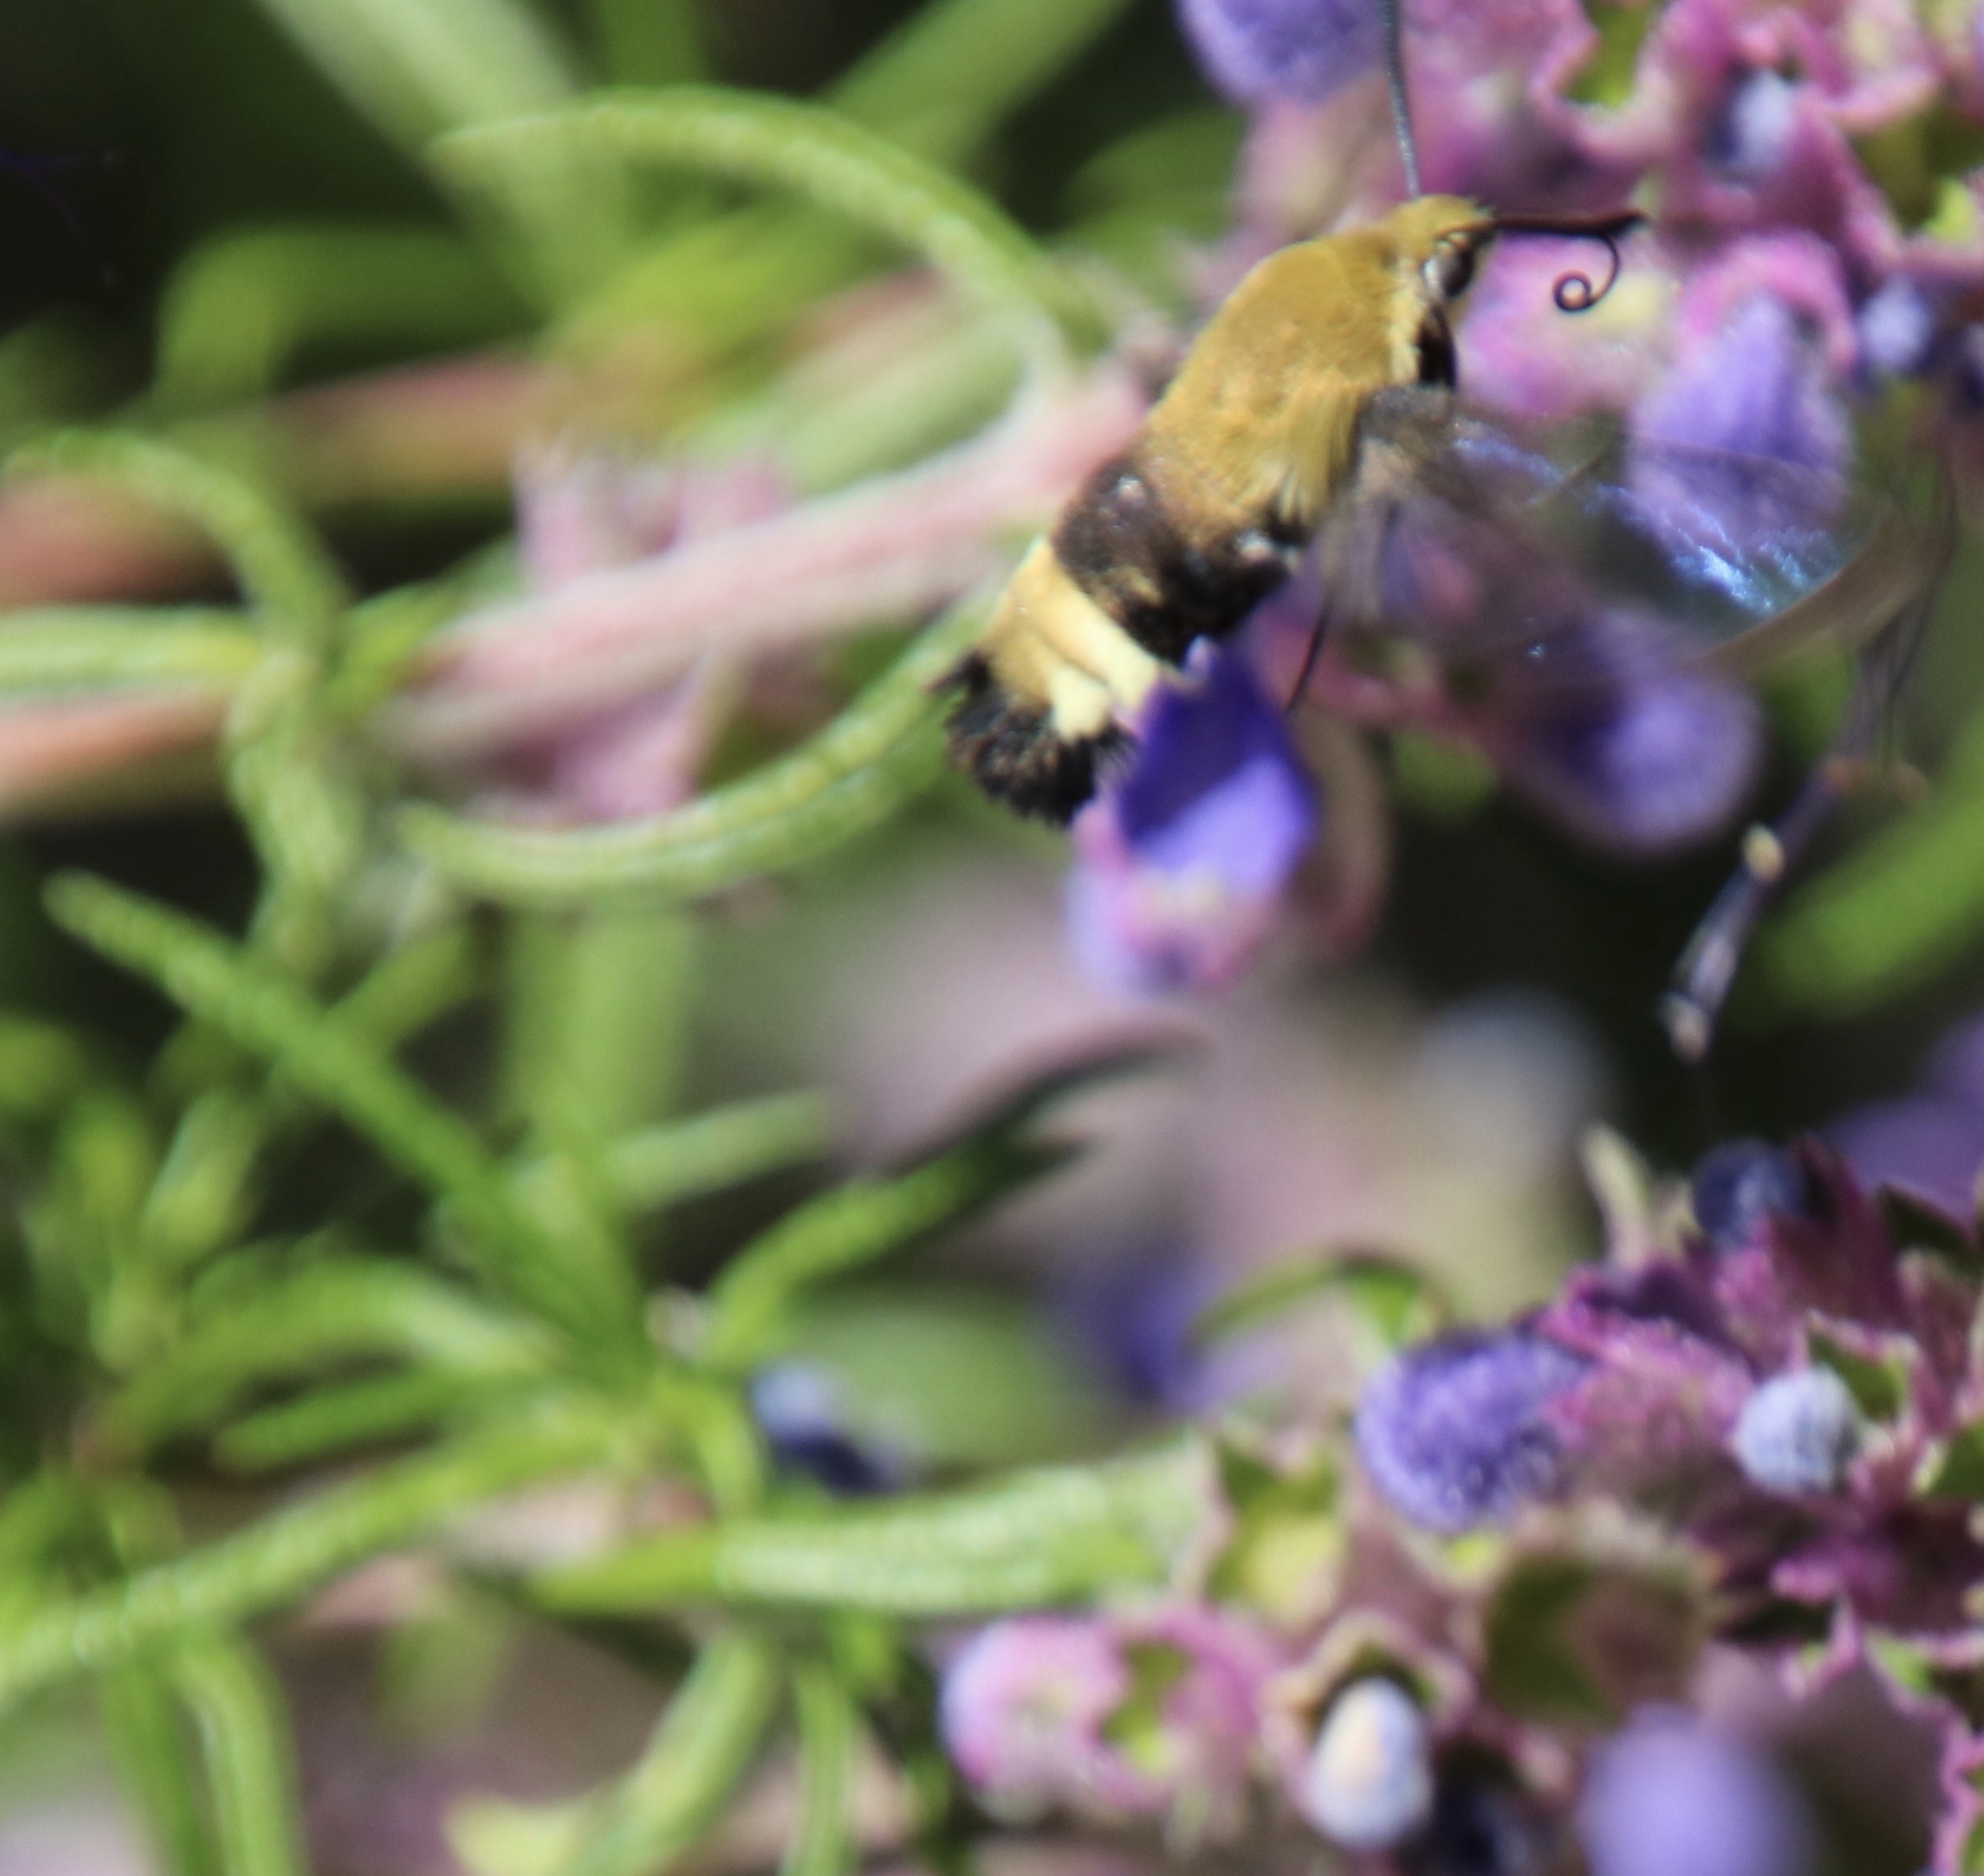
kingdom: Animalia
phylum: Arthropoda
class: Insecta
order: Lepidoptera
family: Sphingidae
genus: Hemaris
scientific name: Hemaris thetis
